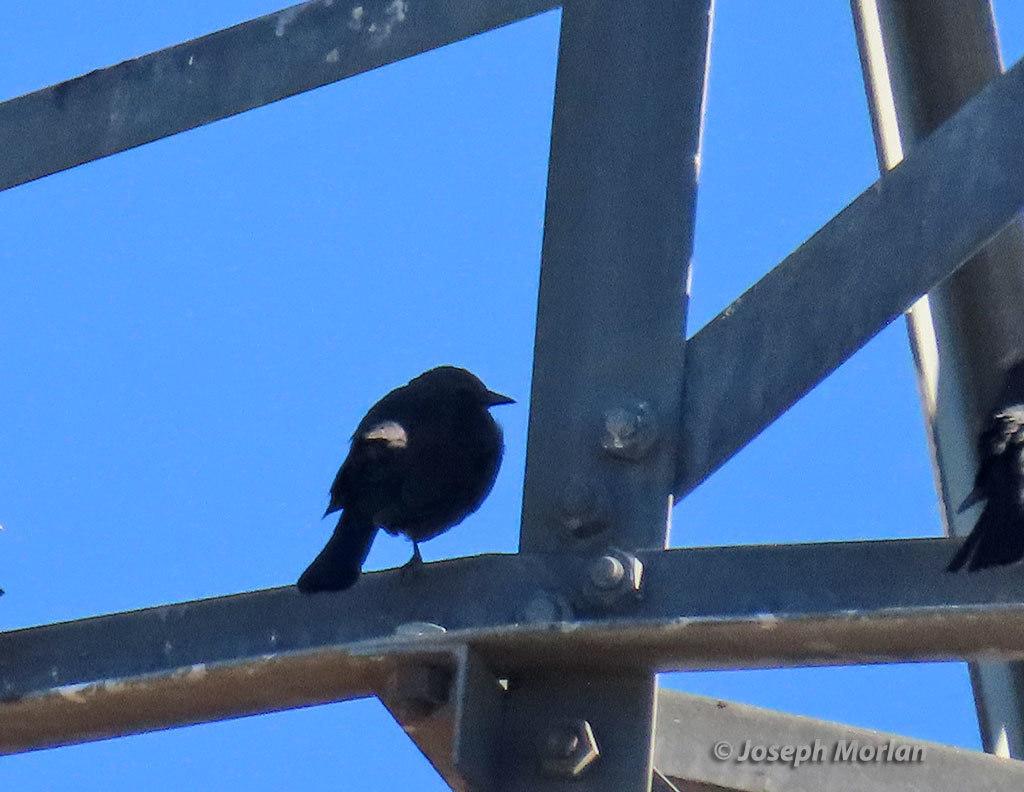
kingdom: Animalia
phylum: Chordata
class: Aves
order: Passeriformes
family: Icteridae
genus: Agelaius
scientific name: Agelaius tricolor
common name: Tricolored blackbird
